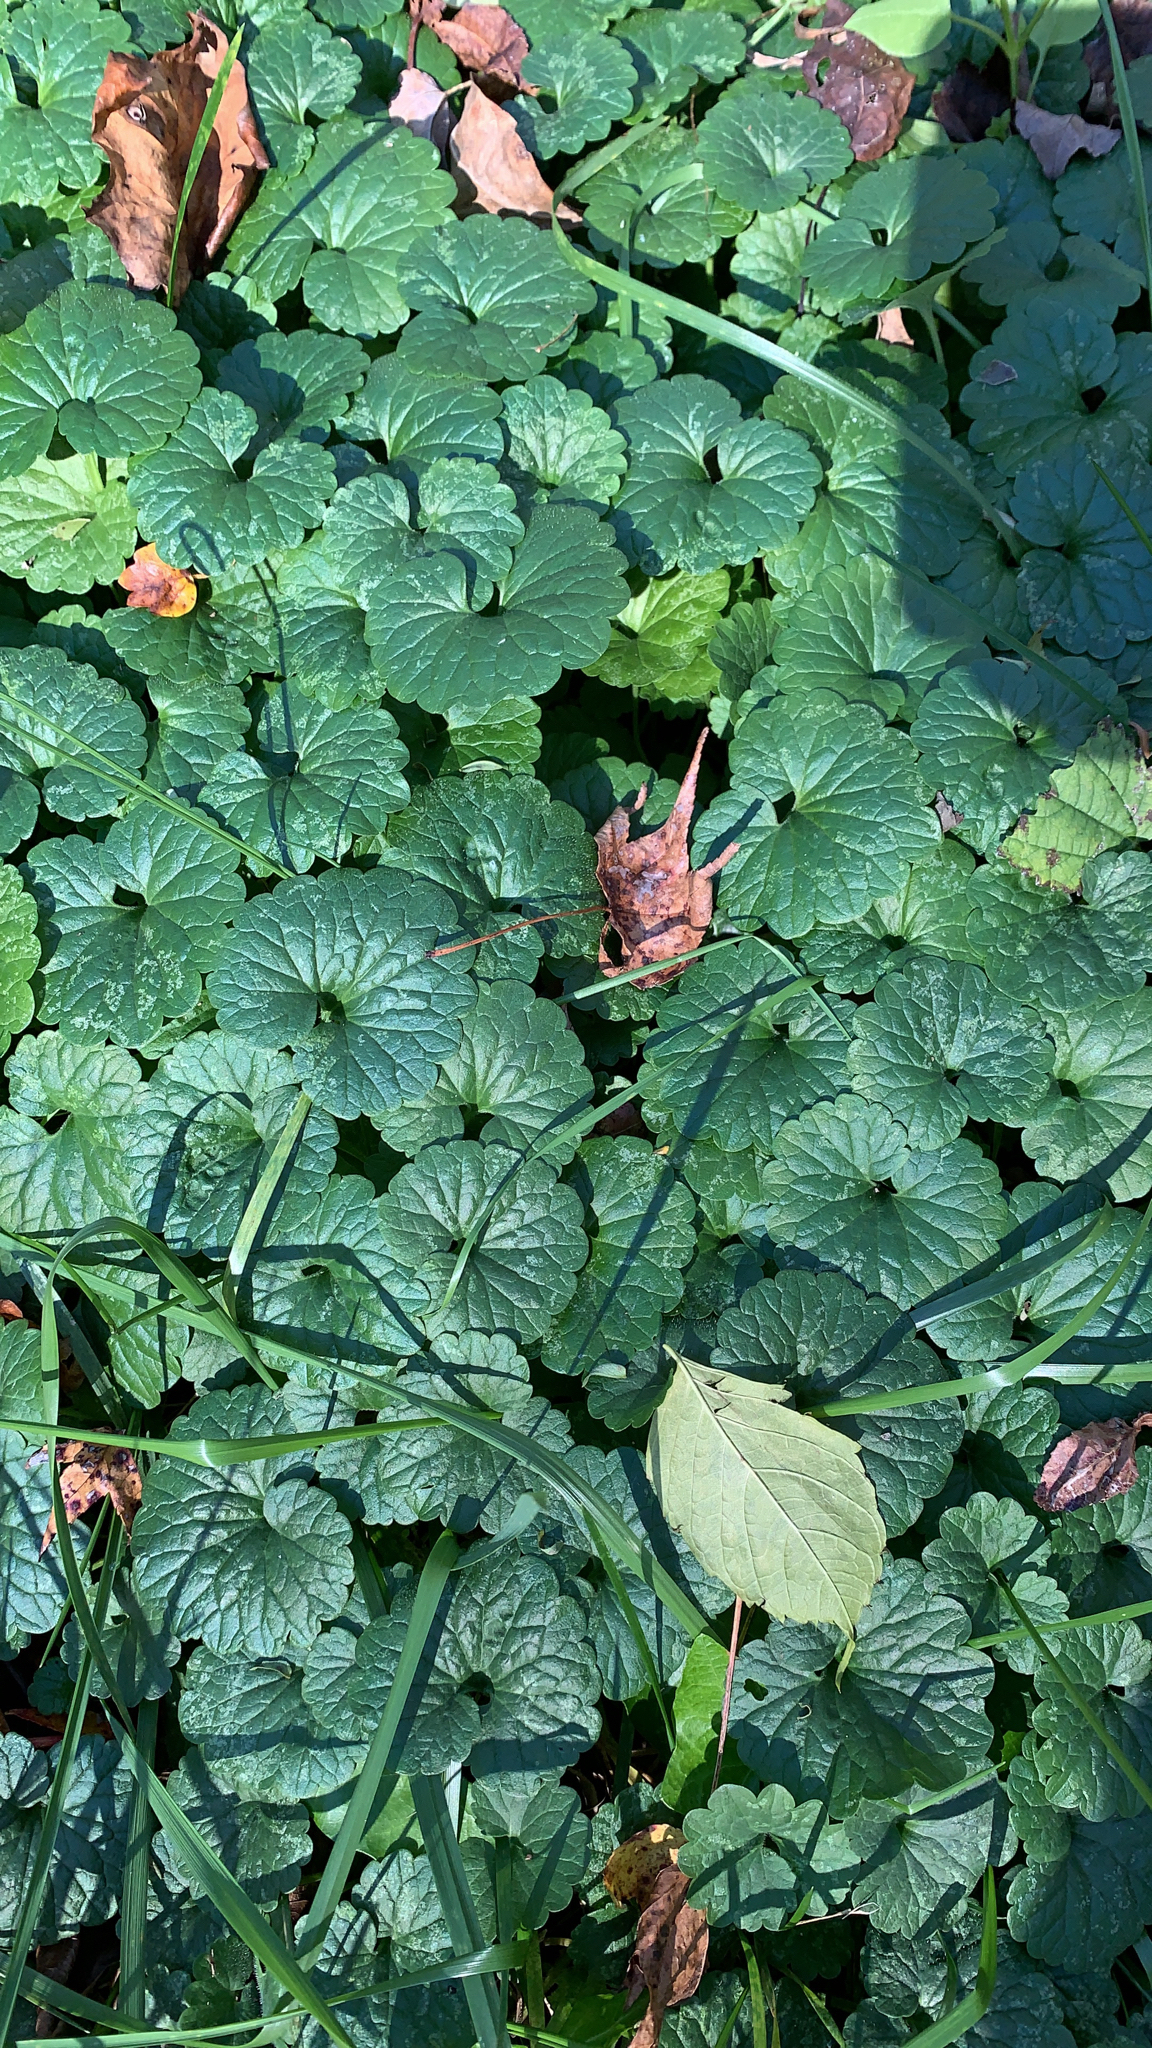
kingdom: Plantae
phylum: Tracheophyta
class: Magnoliopsida
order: Lamiales
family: Lamiaceae
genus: Glechoma
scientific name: Glechoma hederacea
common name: Ground ivy
